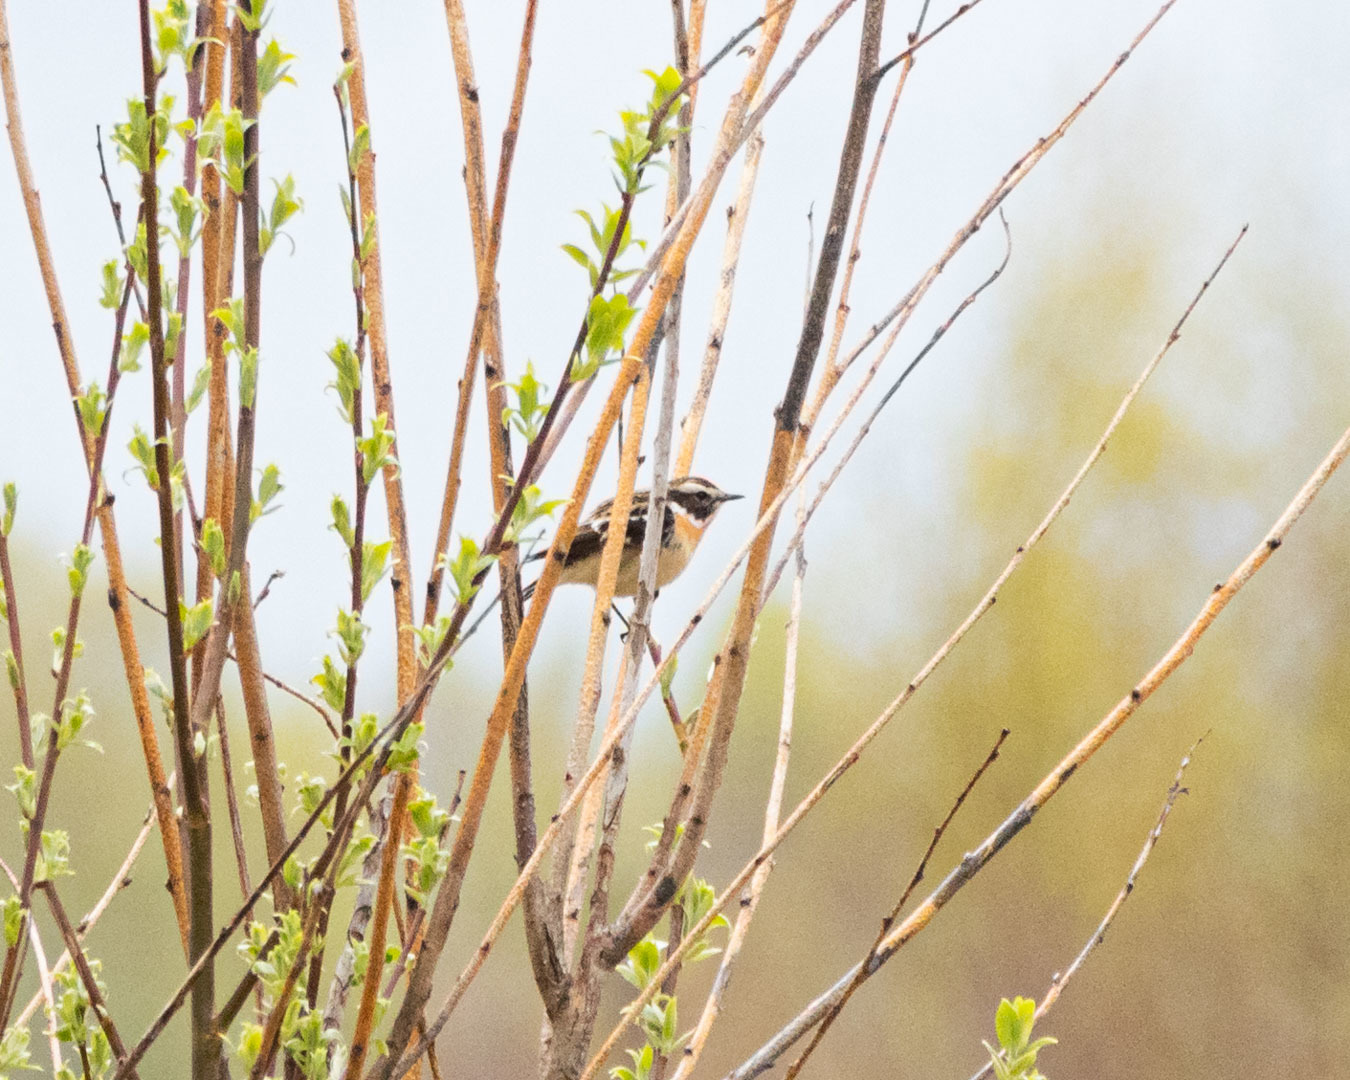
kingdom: Animalia
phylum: Chordata
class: Aves
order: Passeriformes
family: Muscicapidae
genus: Saxicola
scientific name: Saxicola rubetra
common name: Whinchat
